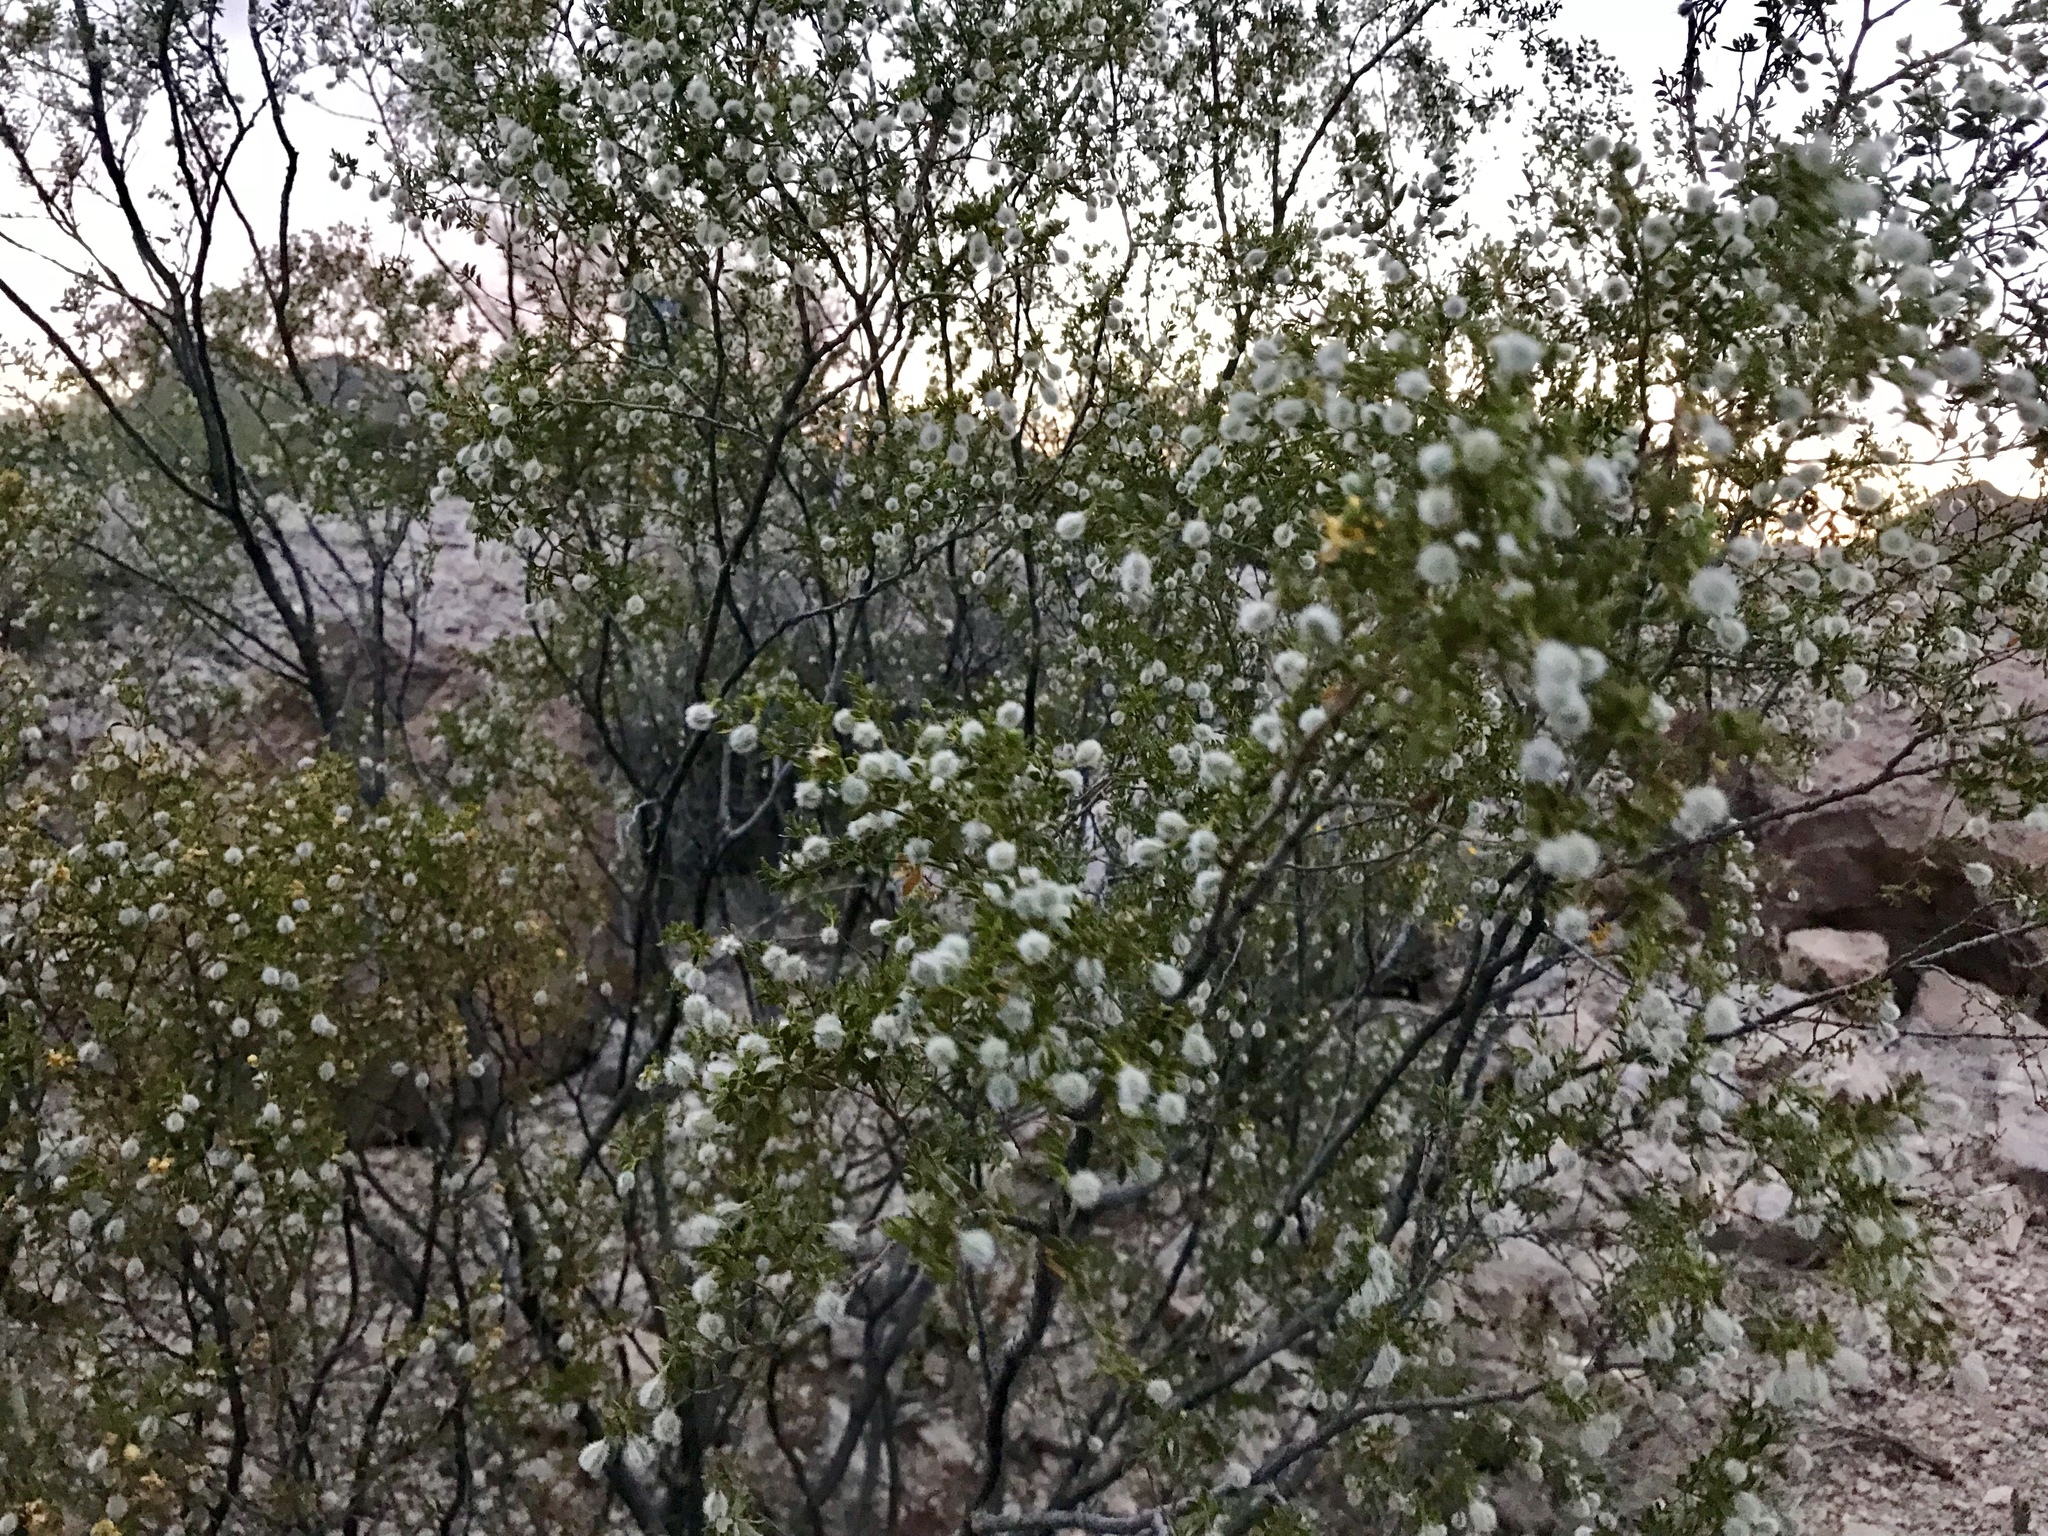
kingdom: Plantae
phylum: Tracheophyta
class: Magnoliopsida
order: Zygophyllales
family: Zygophyllaceae
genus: Larrea
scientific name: Larrea tridentata
